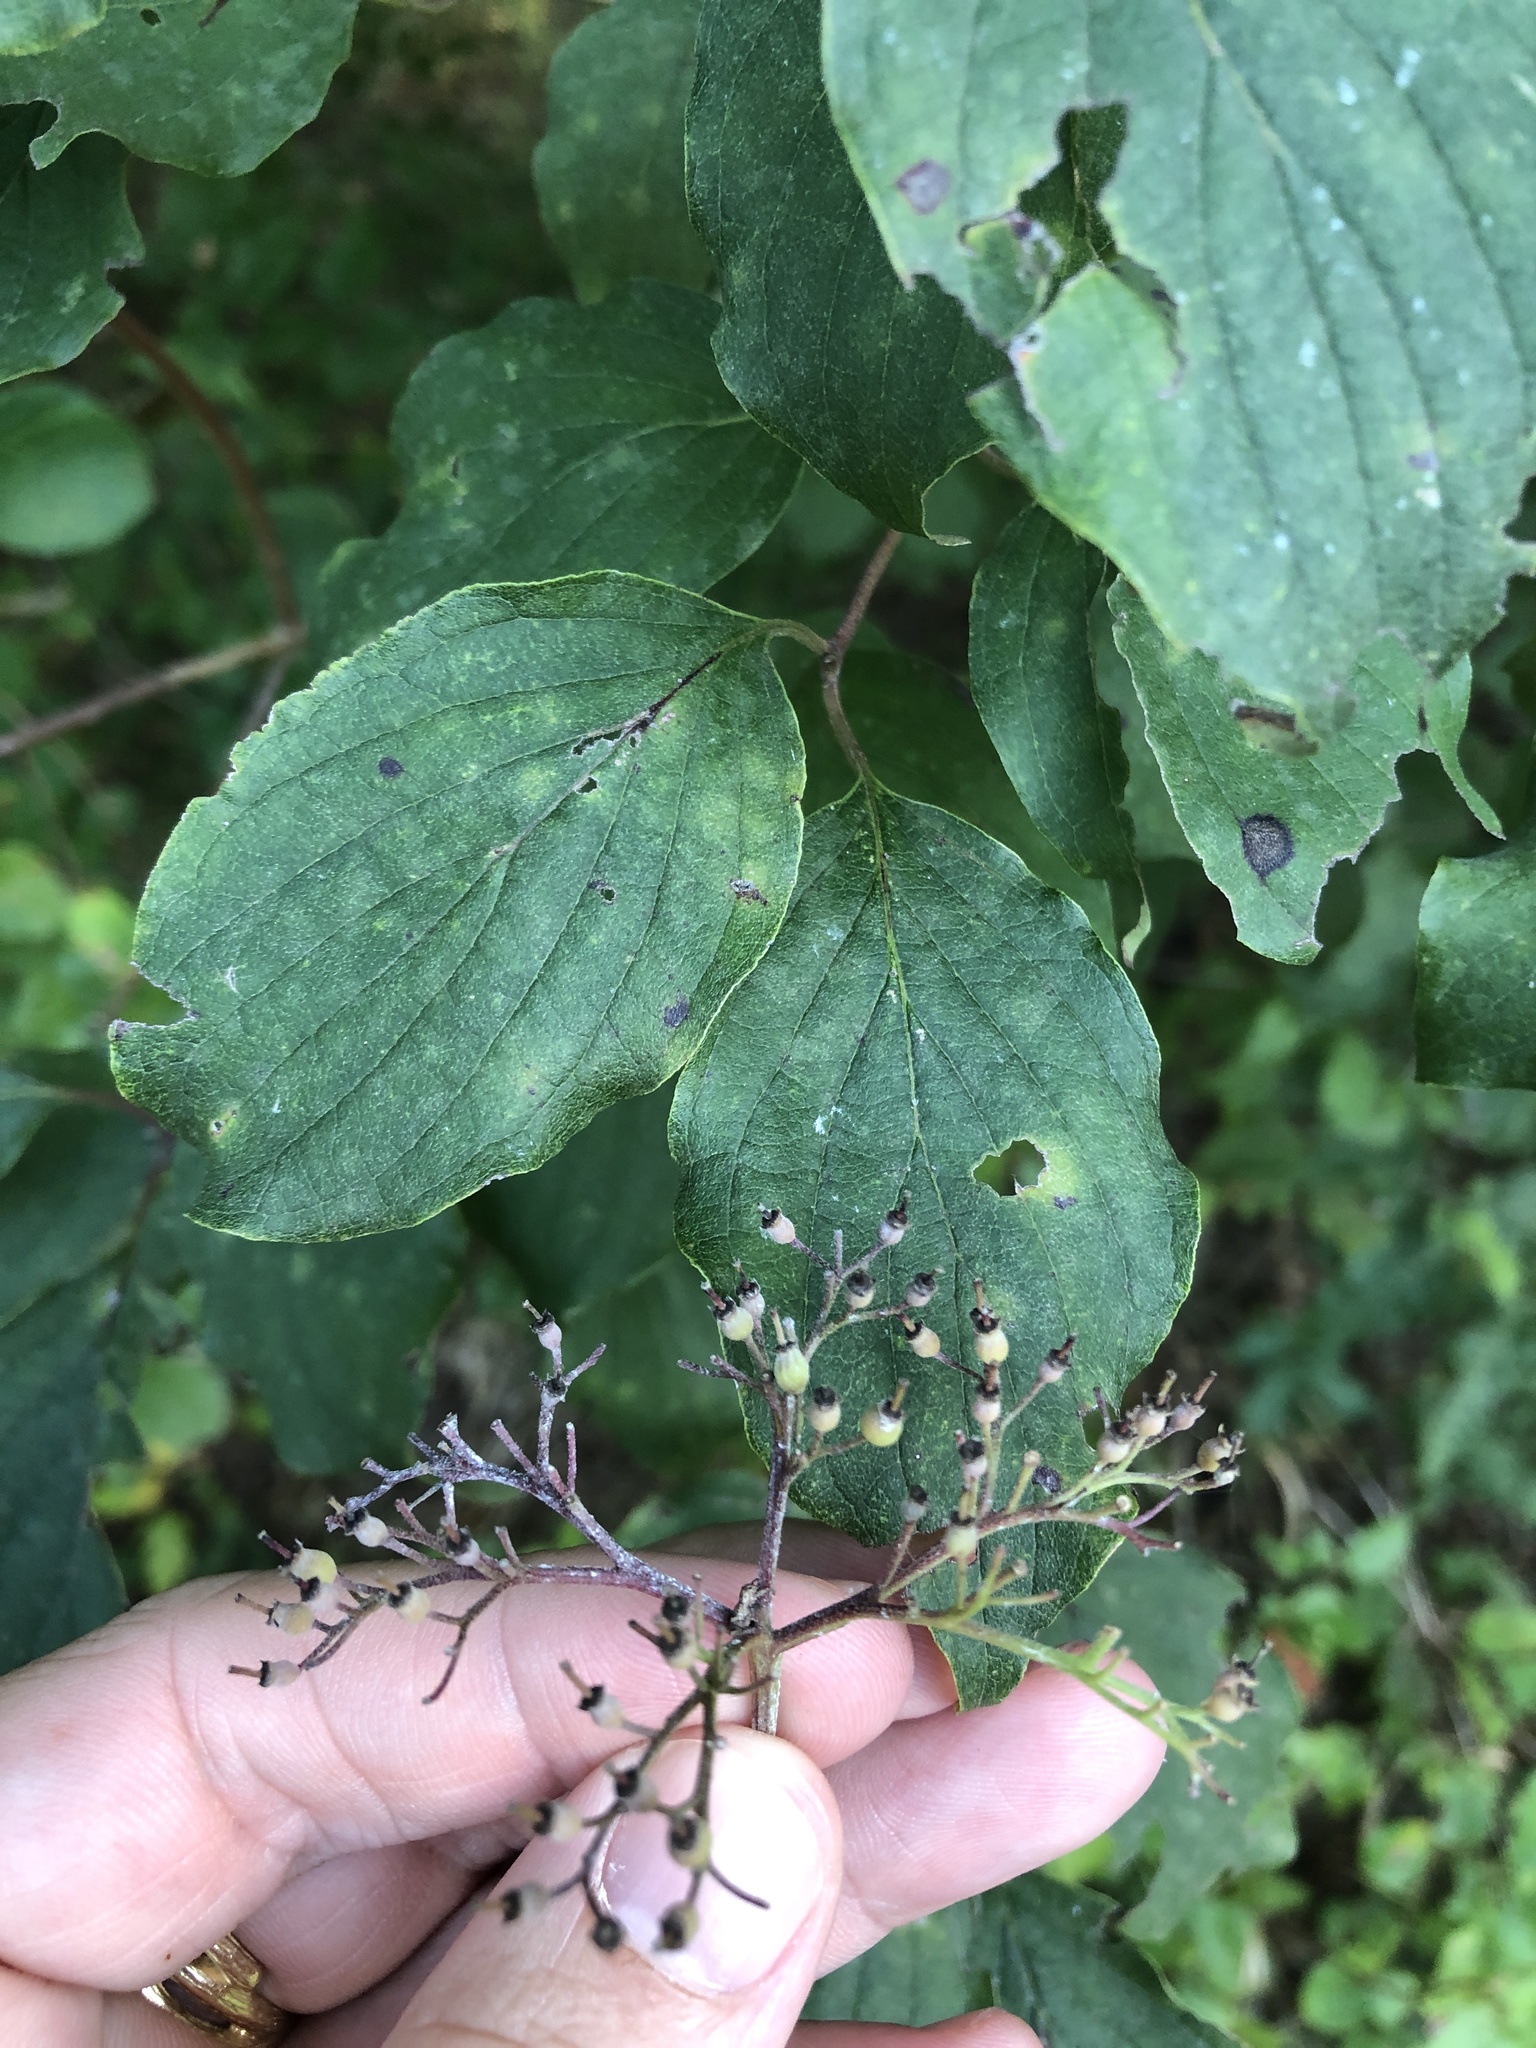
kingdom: Plantae
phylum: Tracheophyta
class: Magnoliopsida
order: Cornales
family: Cornaceae
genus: Cornus
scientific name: Cornus drummondii
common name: Rough-leaf dogwood
